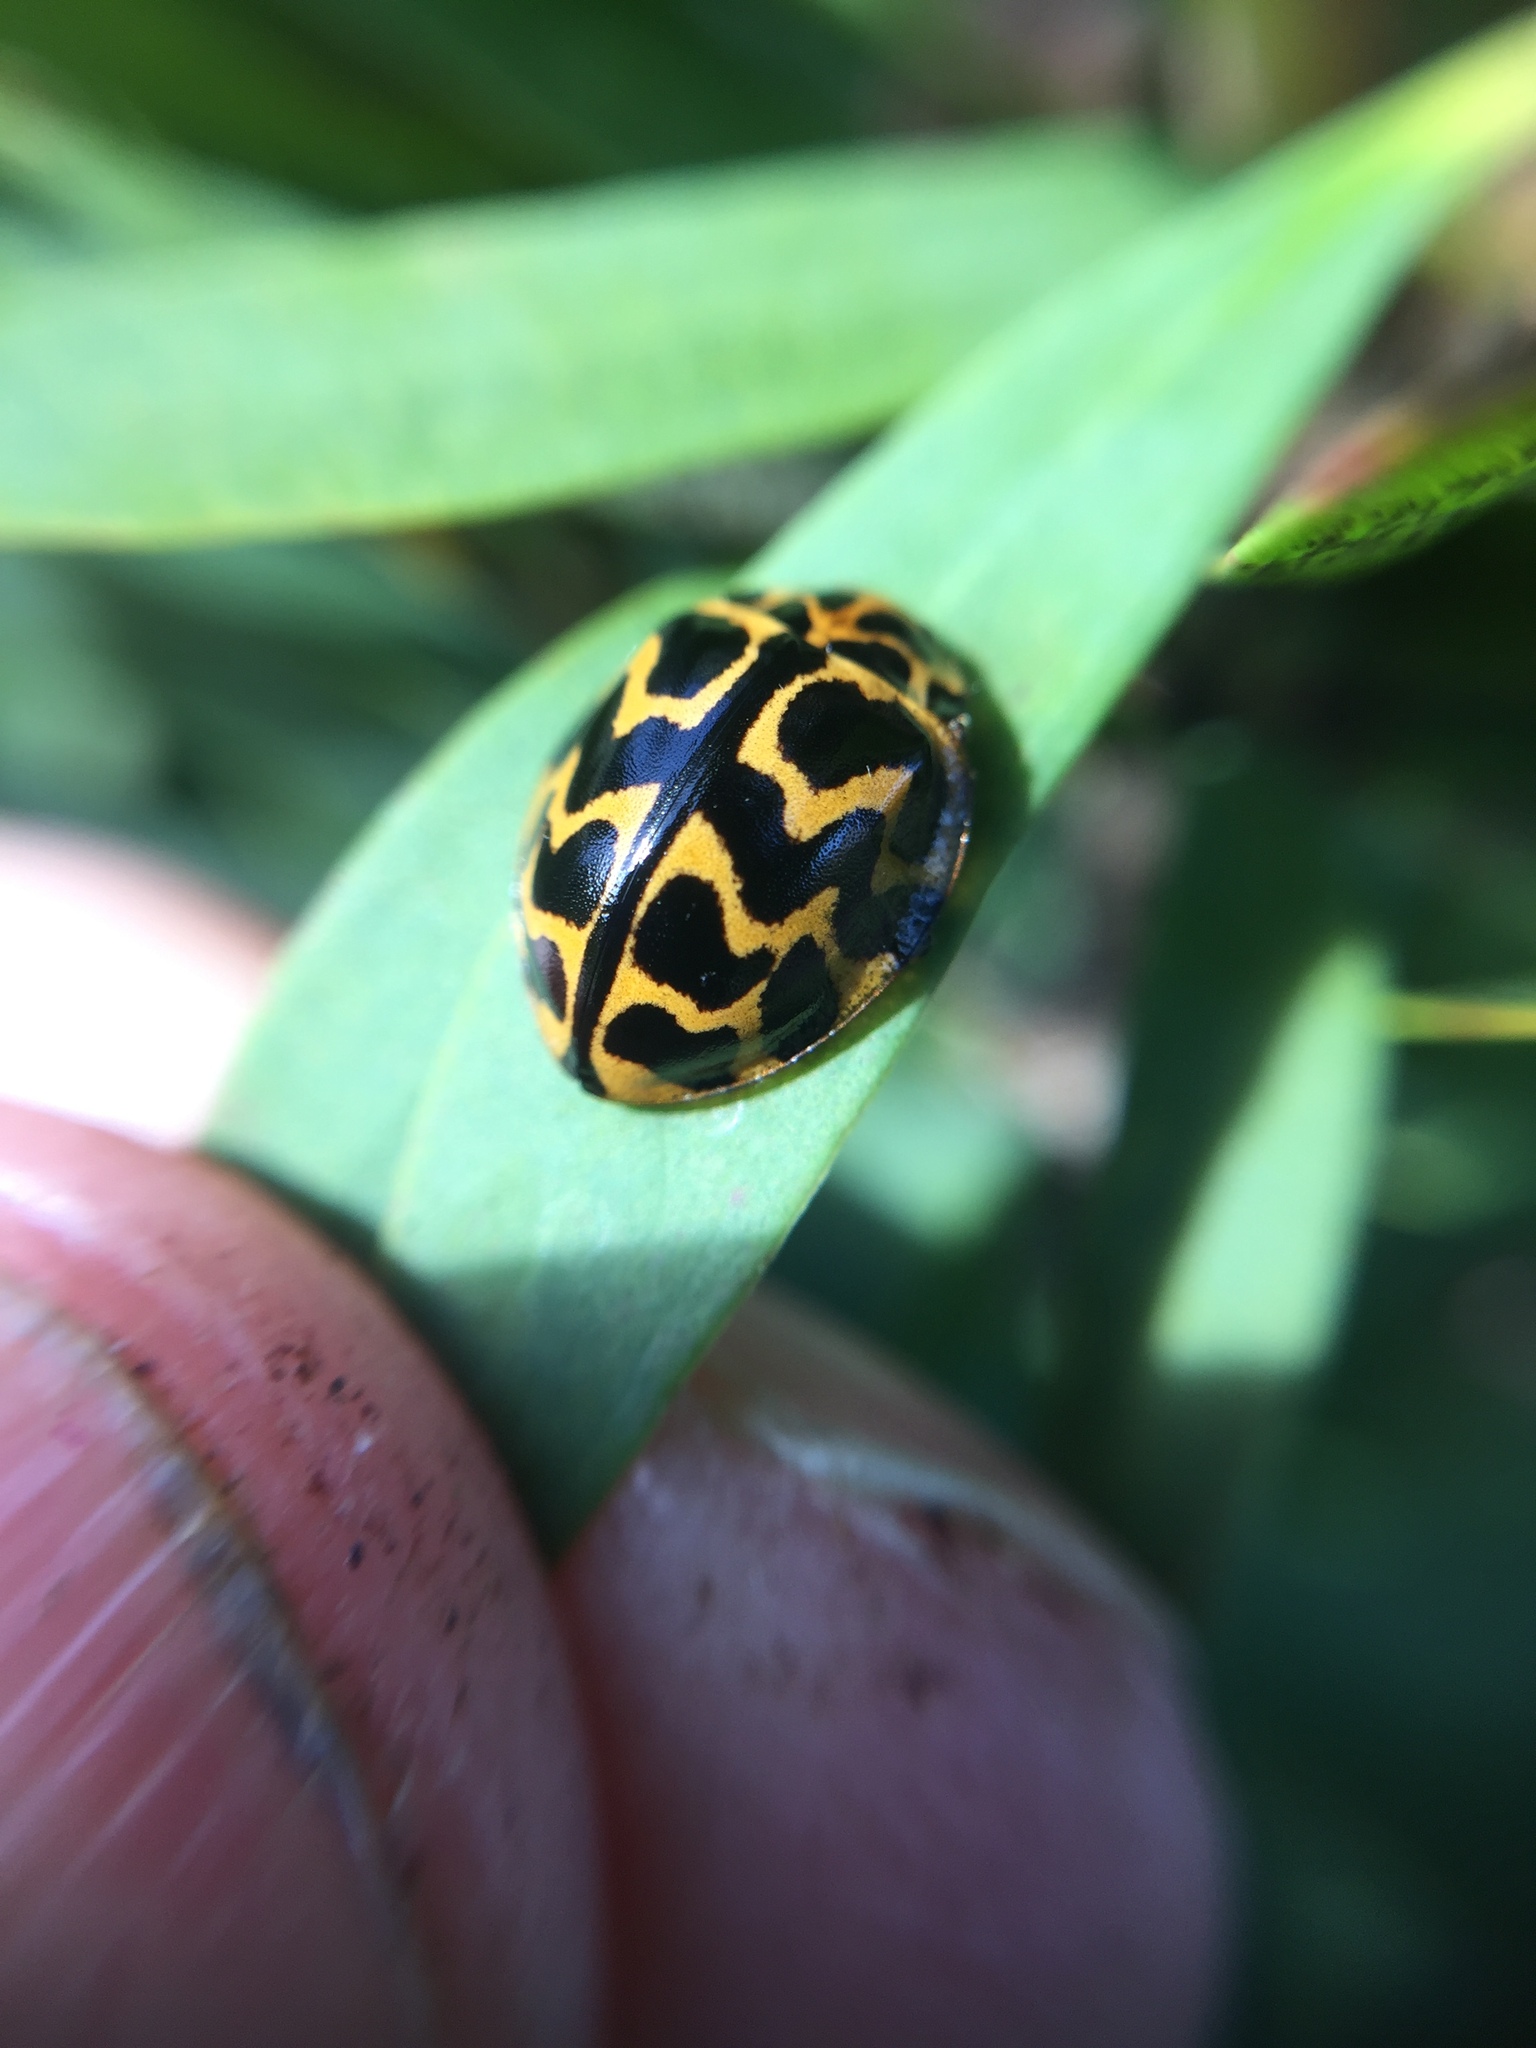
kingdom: Animalia
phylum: Arthropoda
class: Insecta
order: Coleoptera
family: Coccinellidae
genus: Cleobora
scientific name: Cleobora
